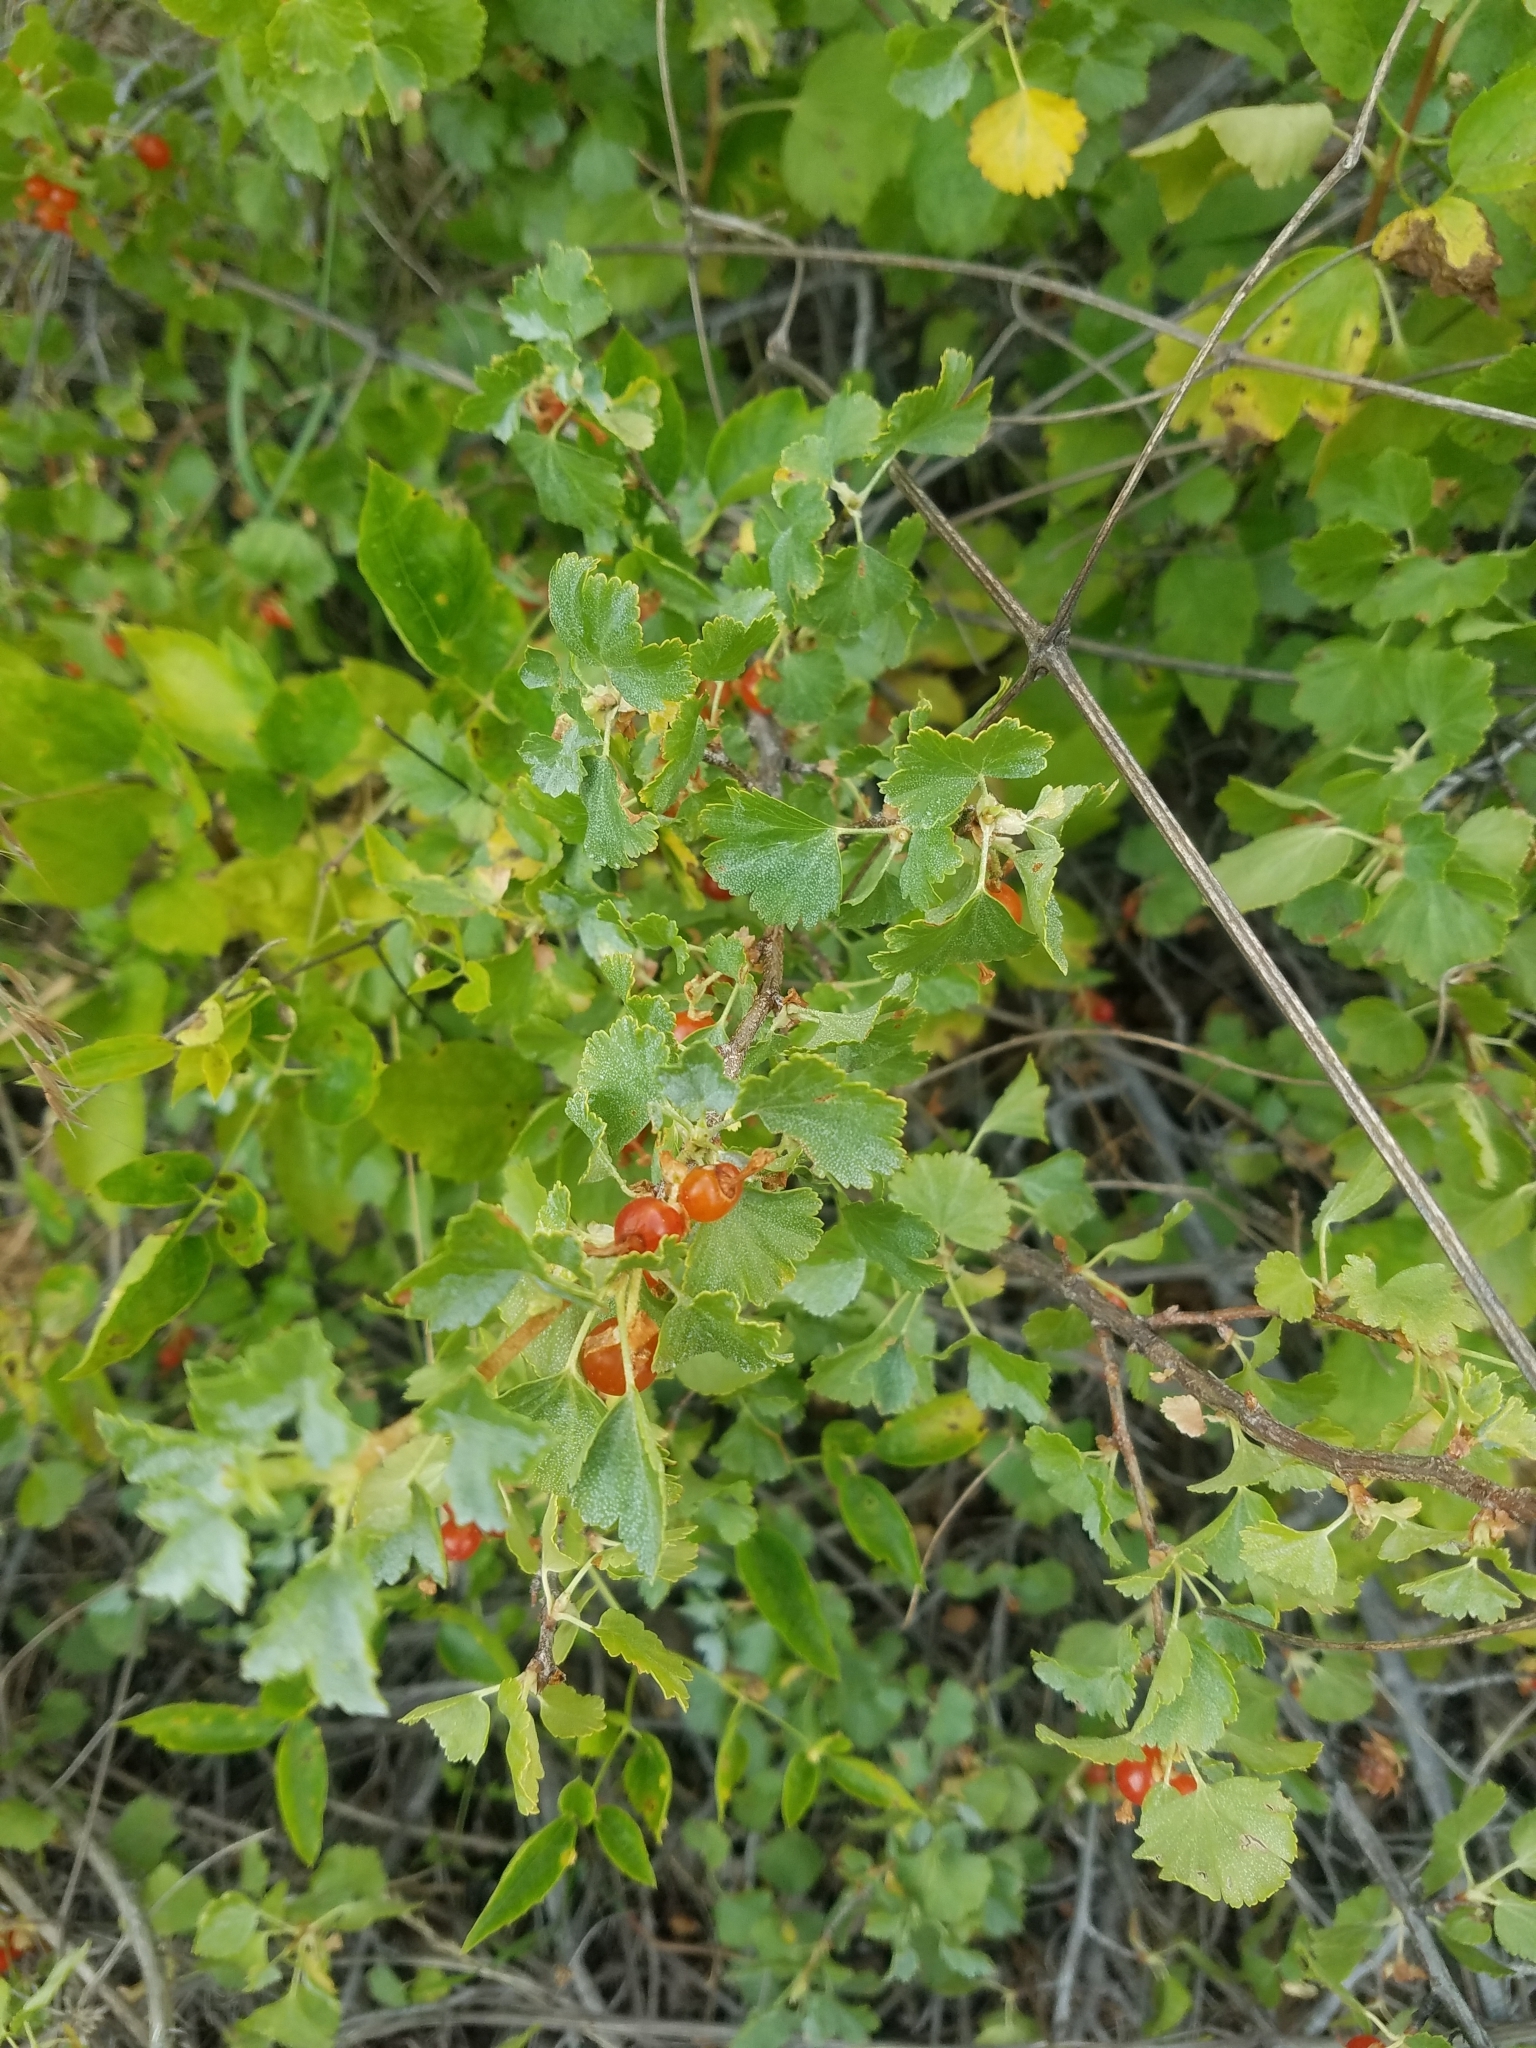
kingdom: Plantae
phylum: Tracheophyta
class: Magnoliopsida
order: Saxifragales
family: Grossulariaceae
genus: Ribes
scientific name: Ribes cereum
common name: Wax currant
